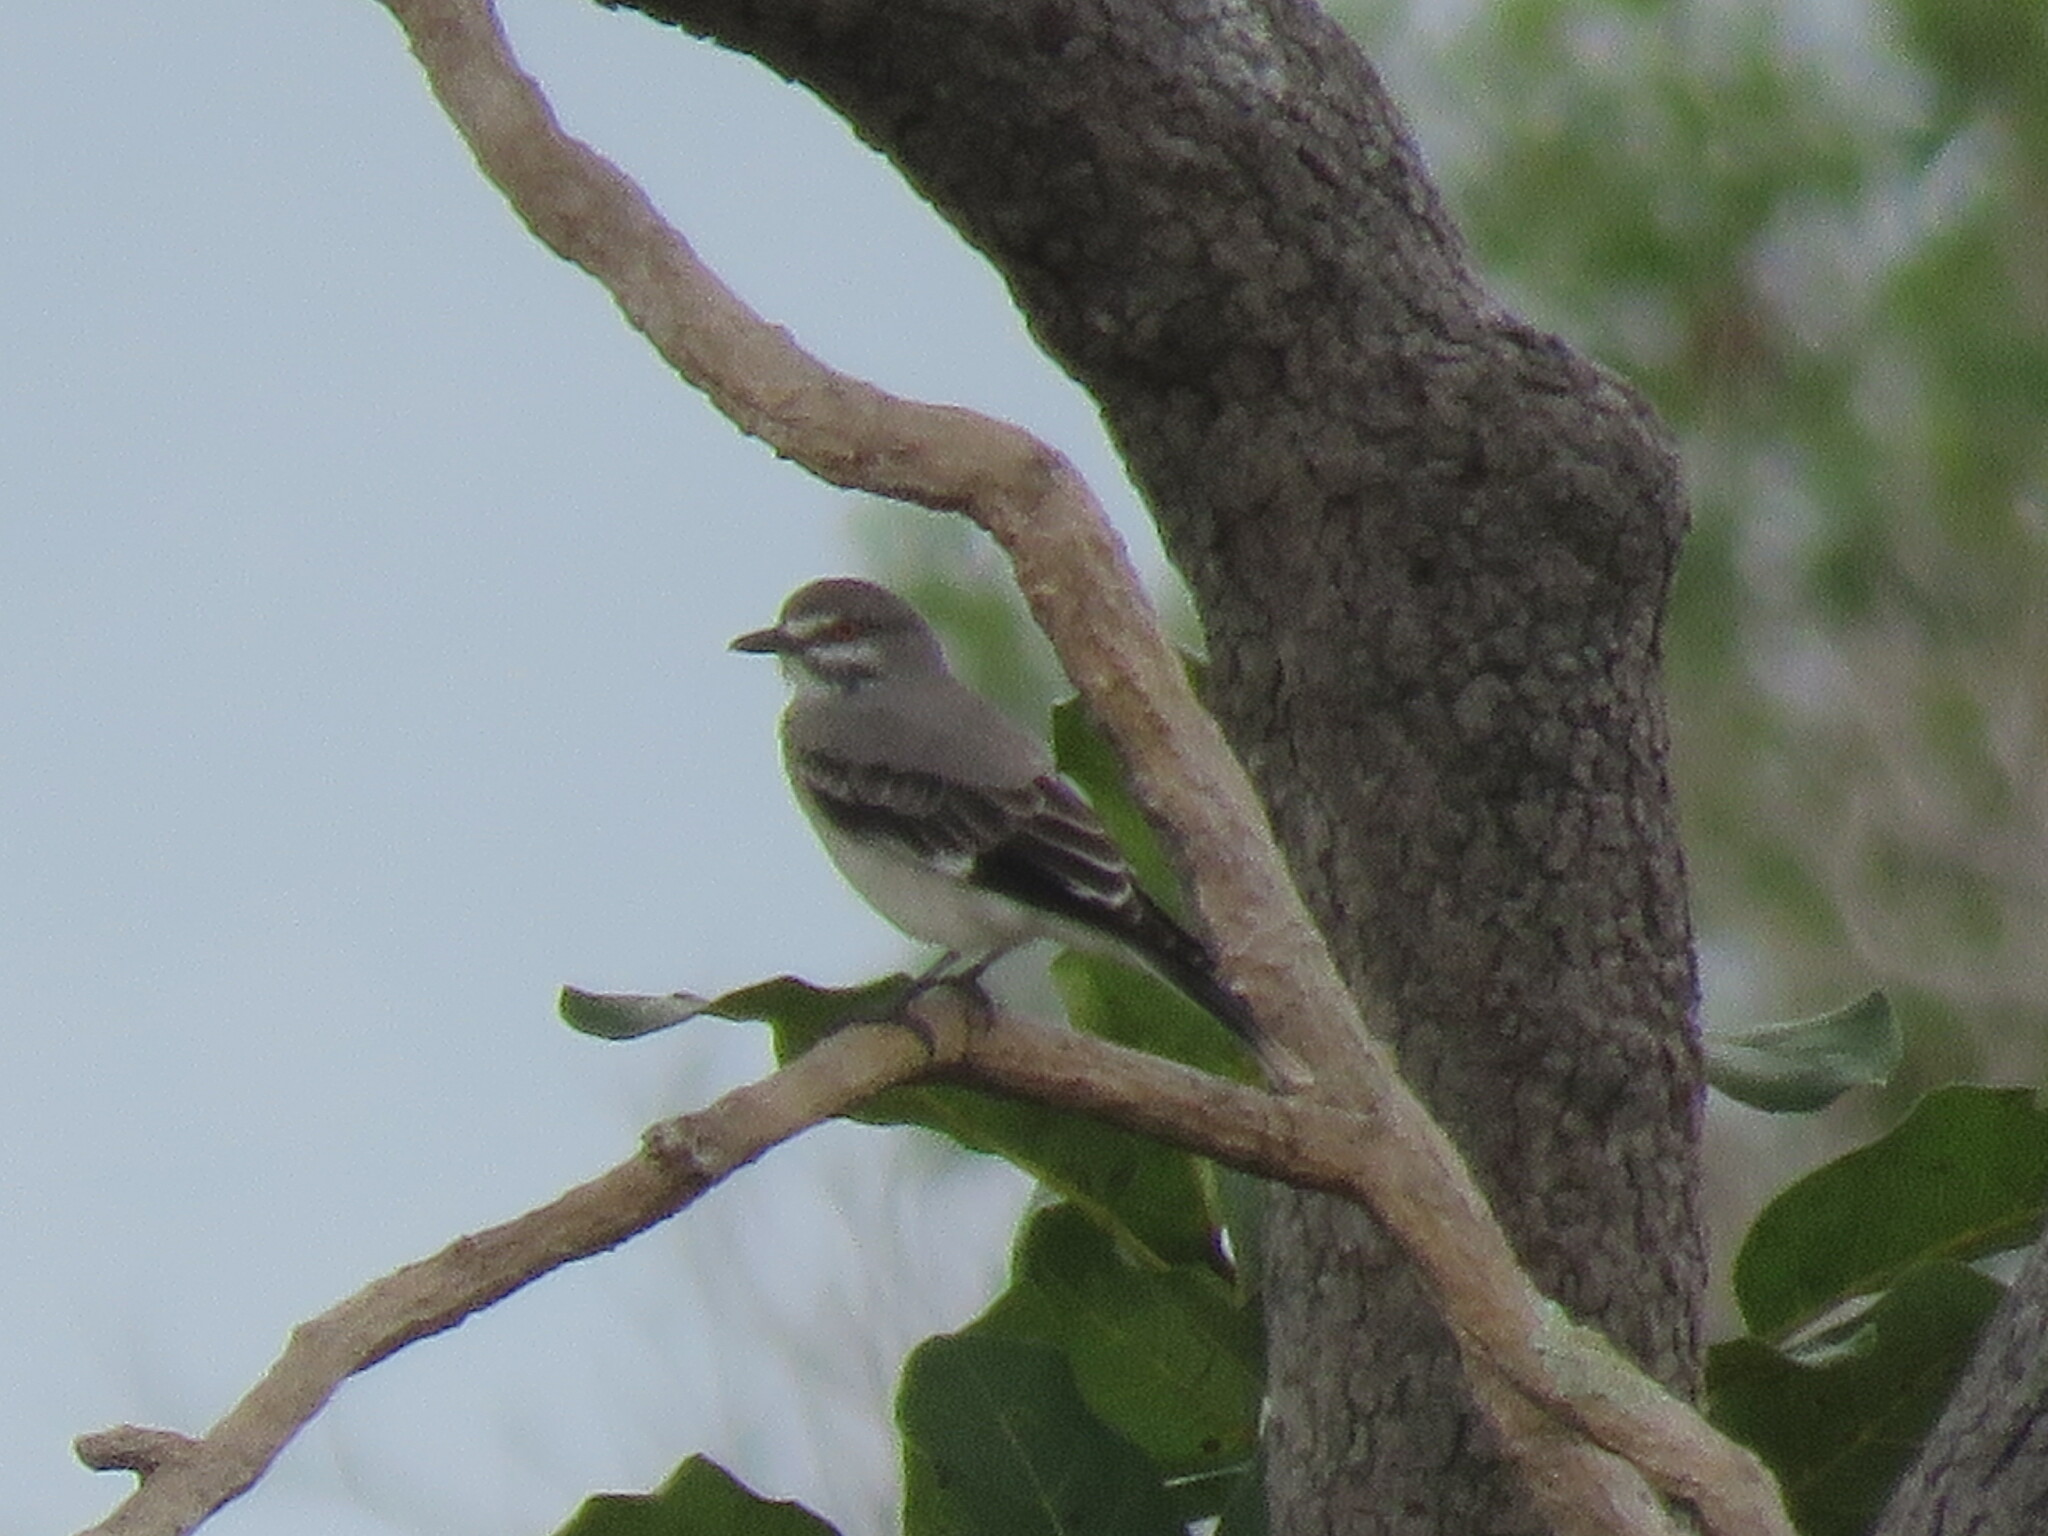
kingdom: Animalia
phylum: Chordata
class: Aves
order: Passeriformes
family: Tyrannidae
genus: Xolmis
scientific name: Xolmis cinereus
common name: Grey monjita
